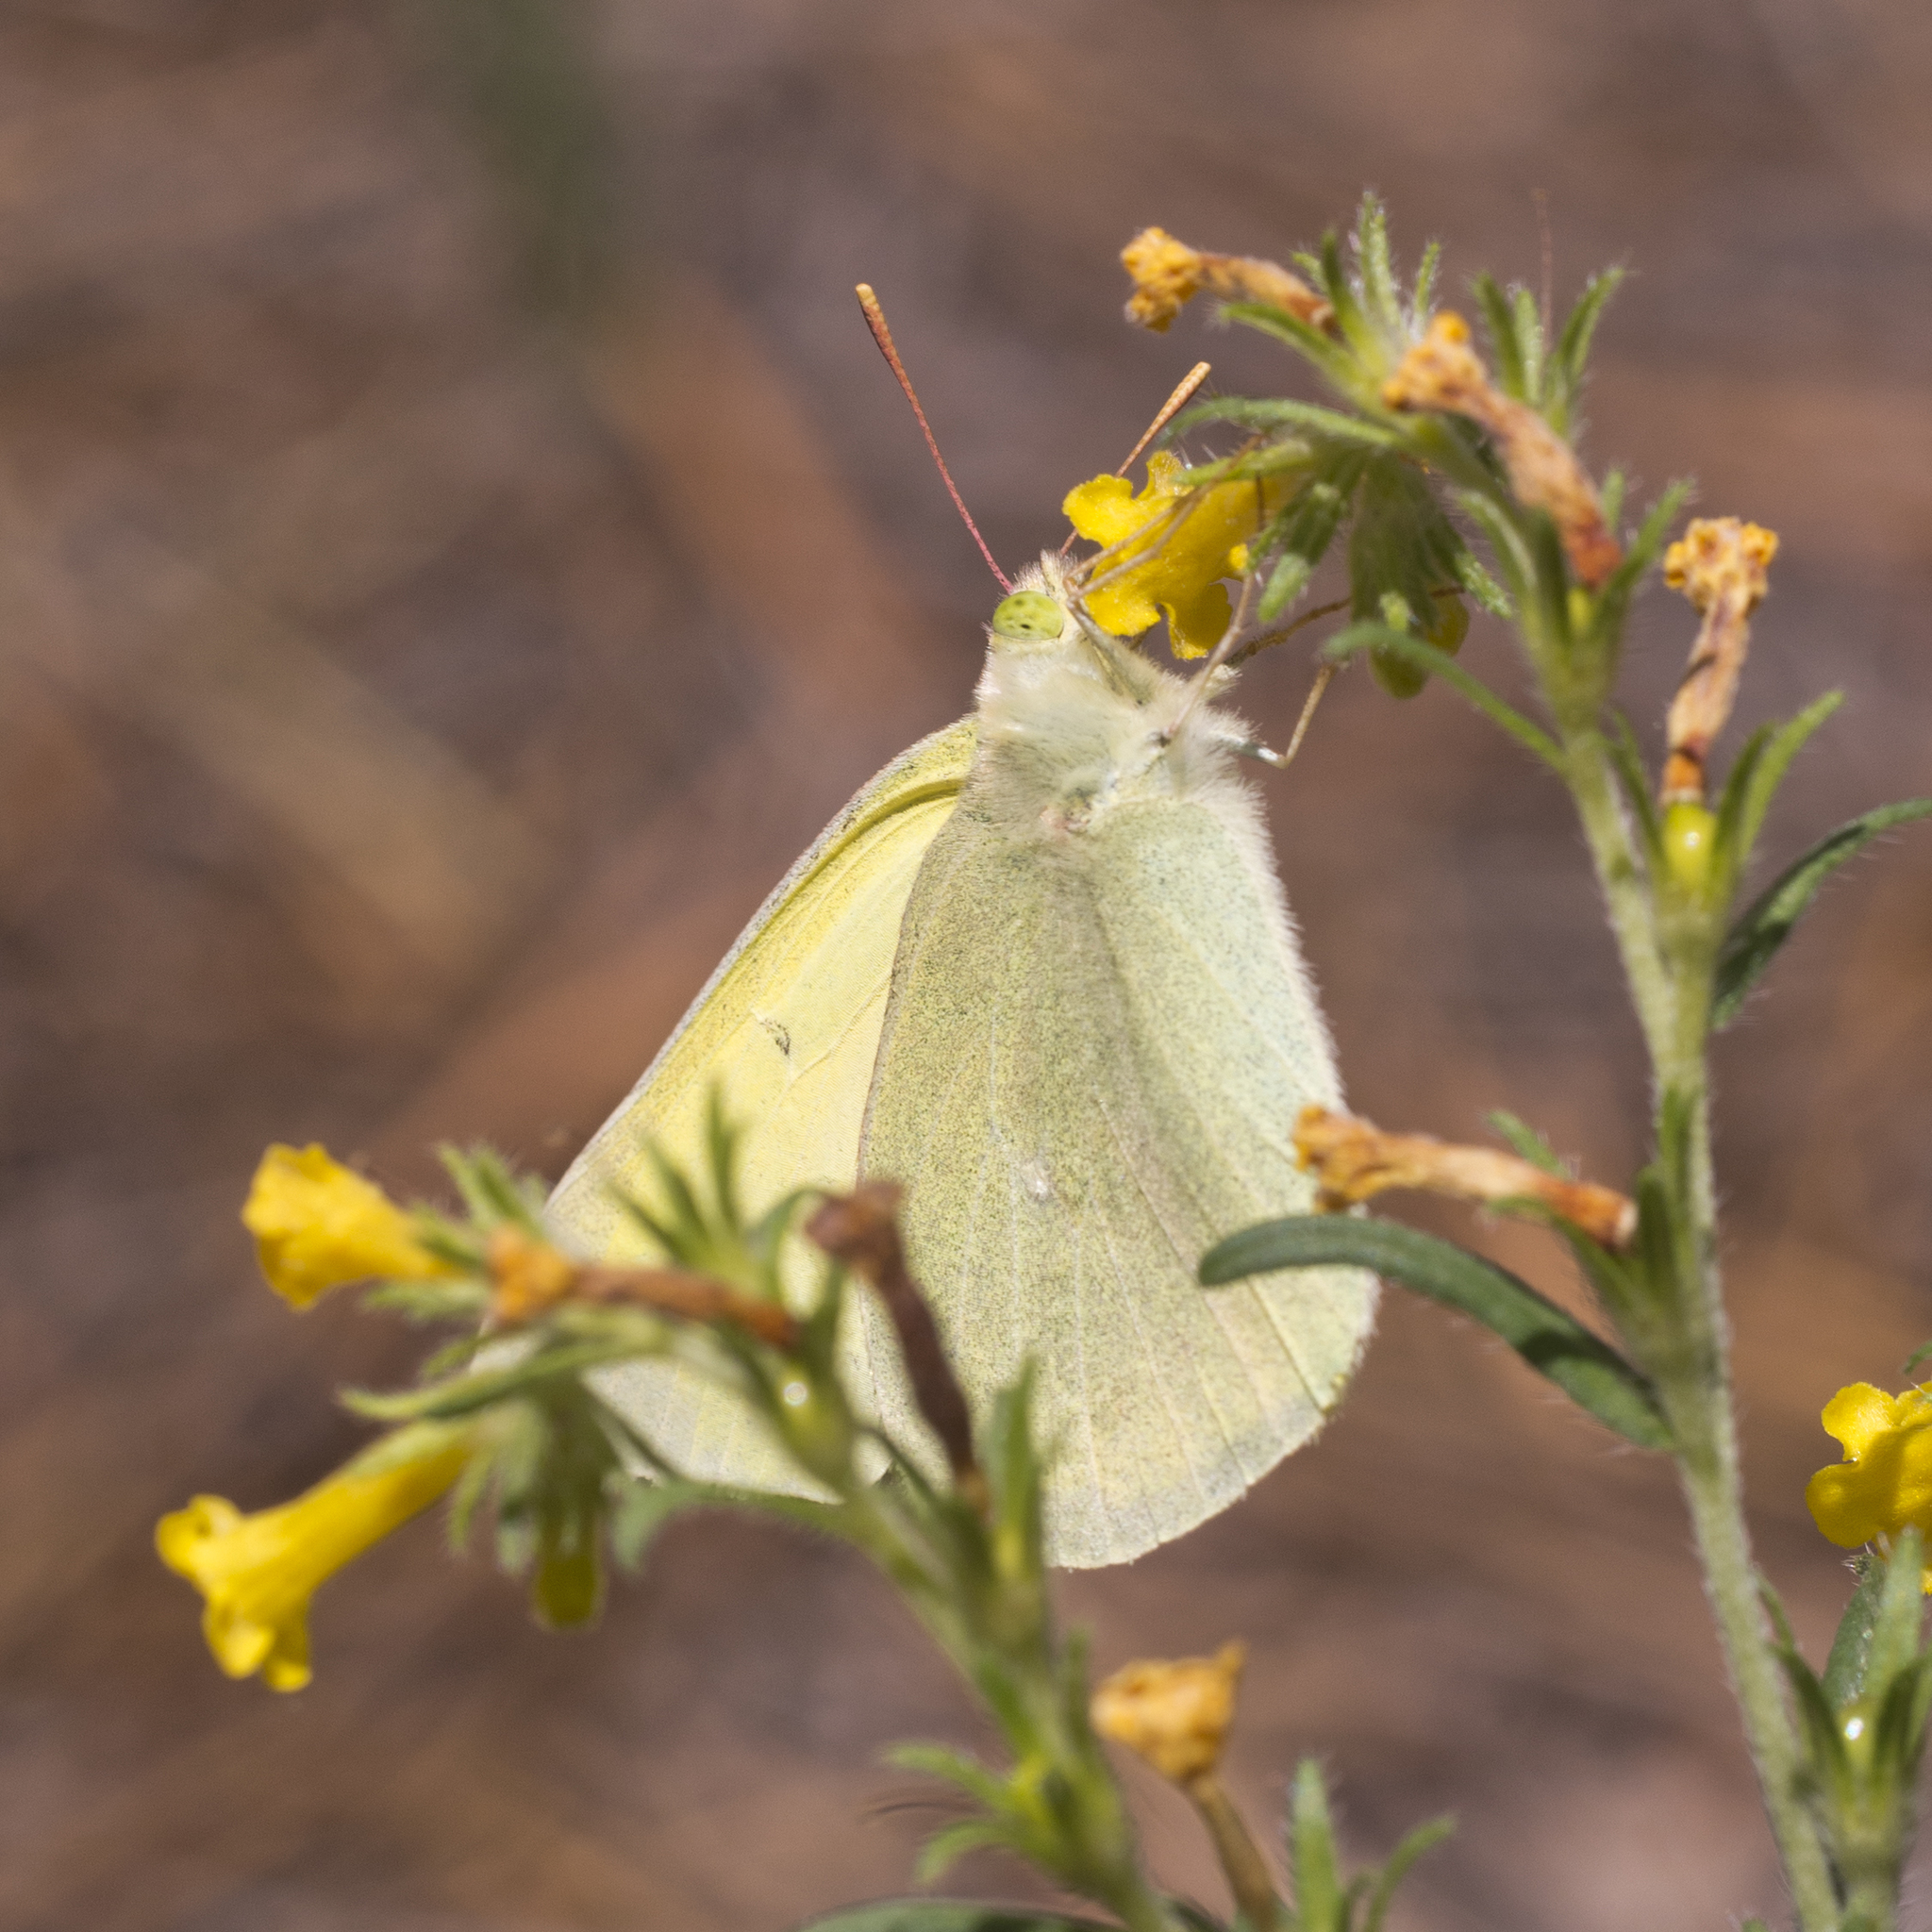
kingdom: Animalia
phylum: Arthropoda
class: Insecta
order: Lepidoptera
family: Pieridae
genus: Colias
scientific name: Colias alexandra
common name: Alexandra sulphur
